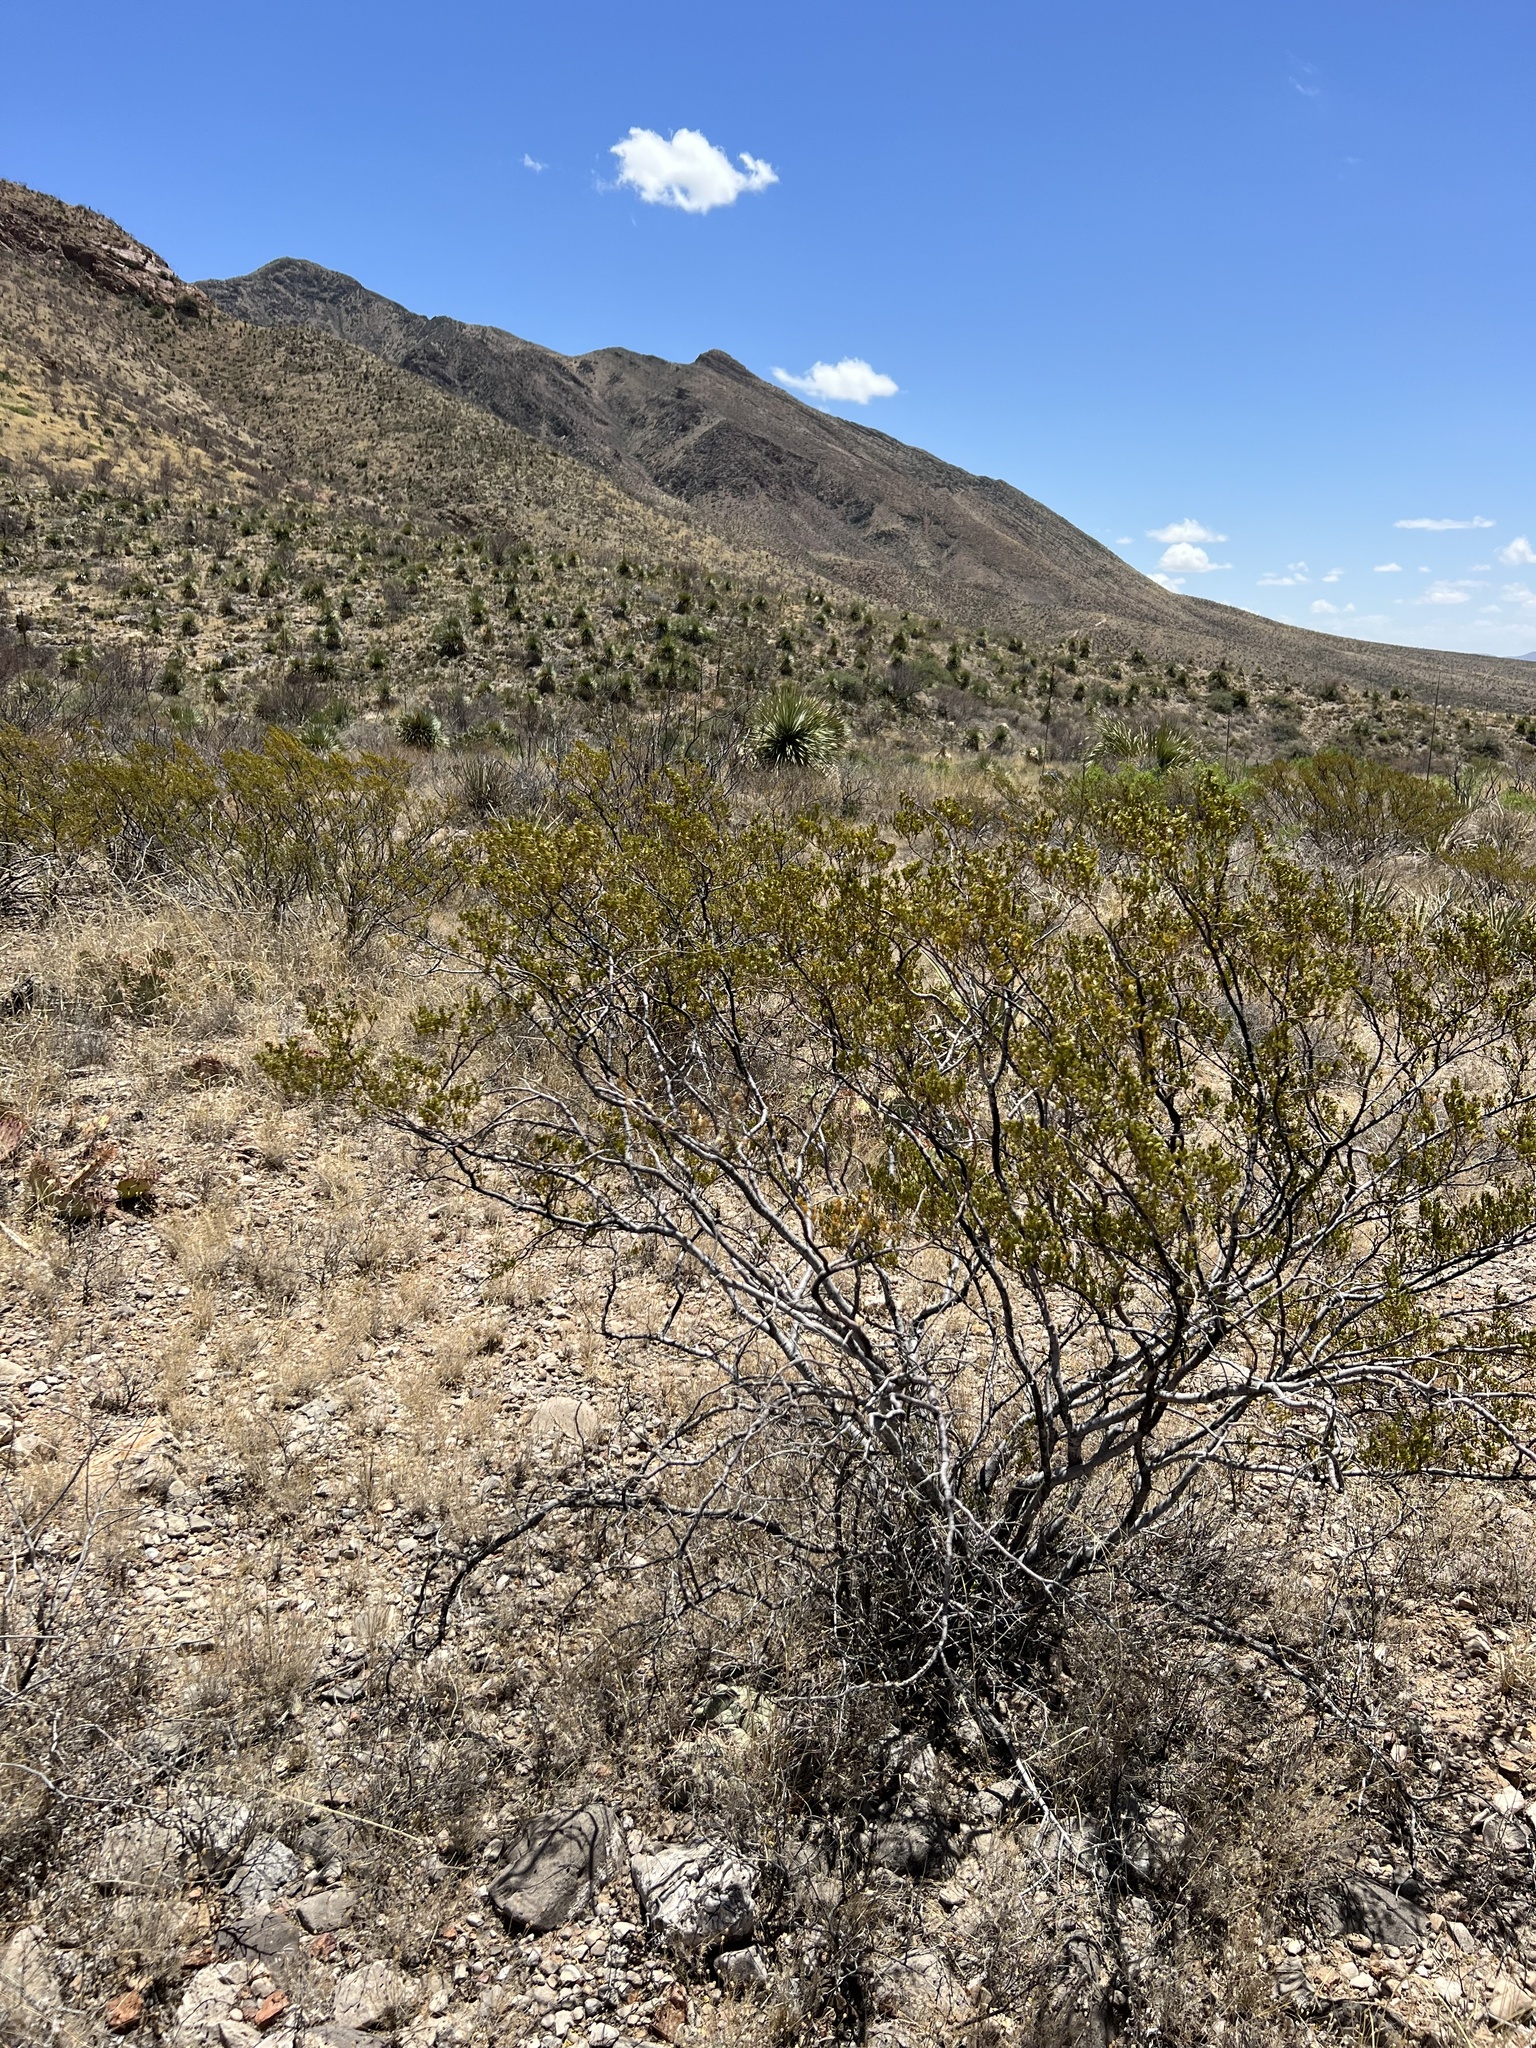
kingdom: Plantae
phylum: Tracheophyta
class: Magnoliopsida
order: Zygophyllales
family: Zygophyllaceae
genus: Larrea
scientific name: Larrea tridentata
